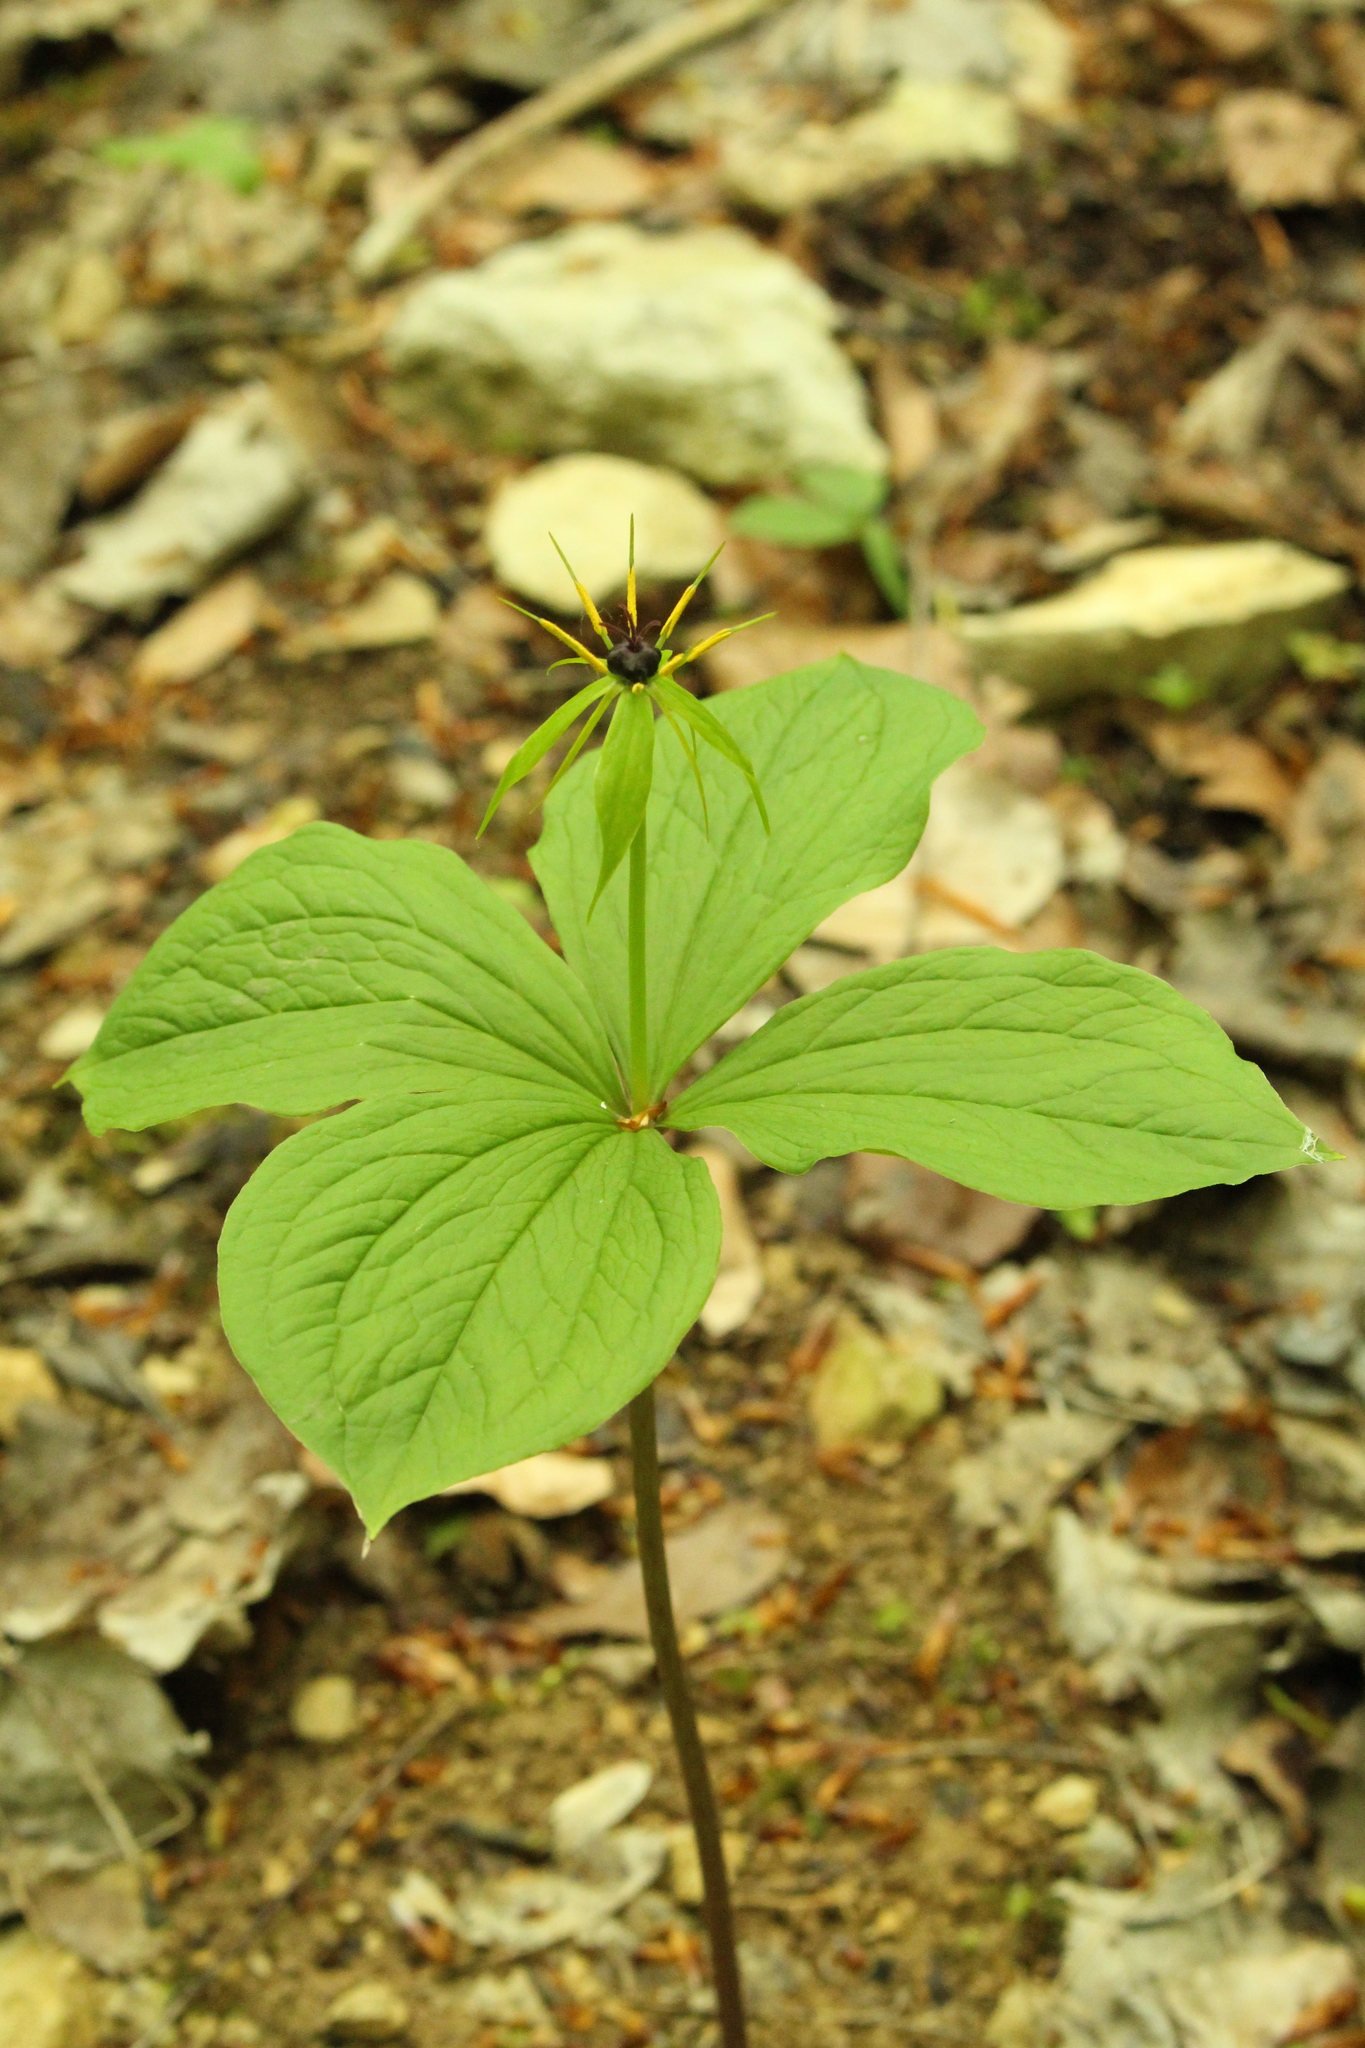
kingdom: Plantae
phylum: Tracheophyta
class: Liliopsida
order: Liliales
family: Melanthiaceae
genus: Paris
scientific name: Paris quadrifolia
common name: Herb-paris
